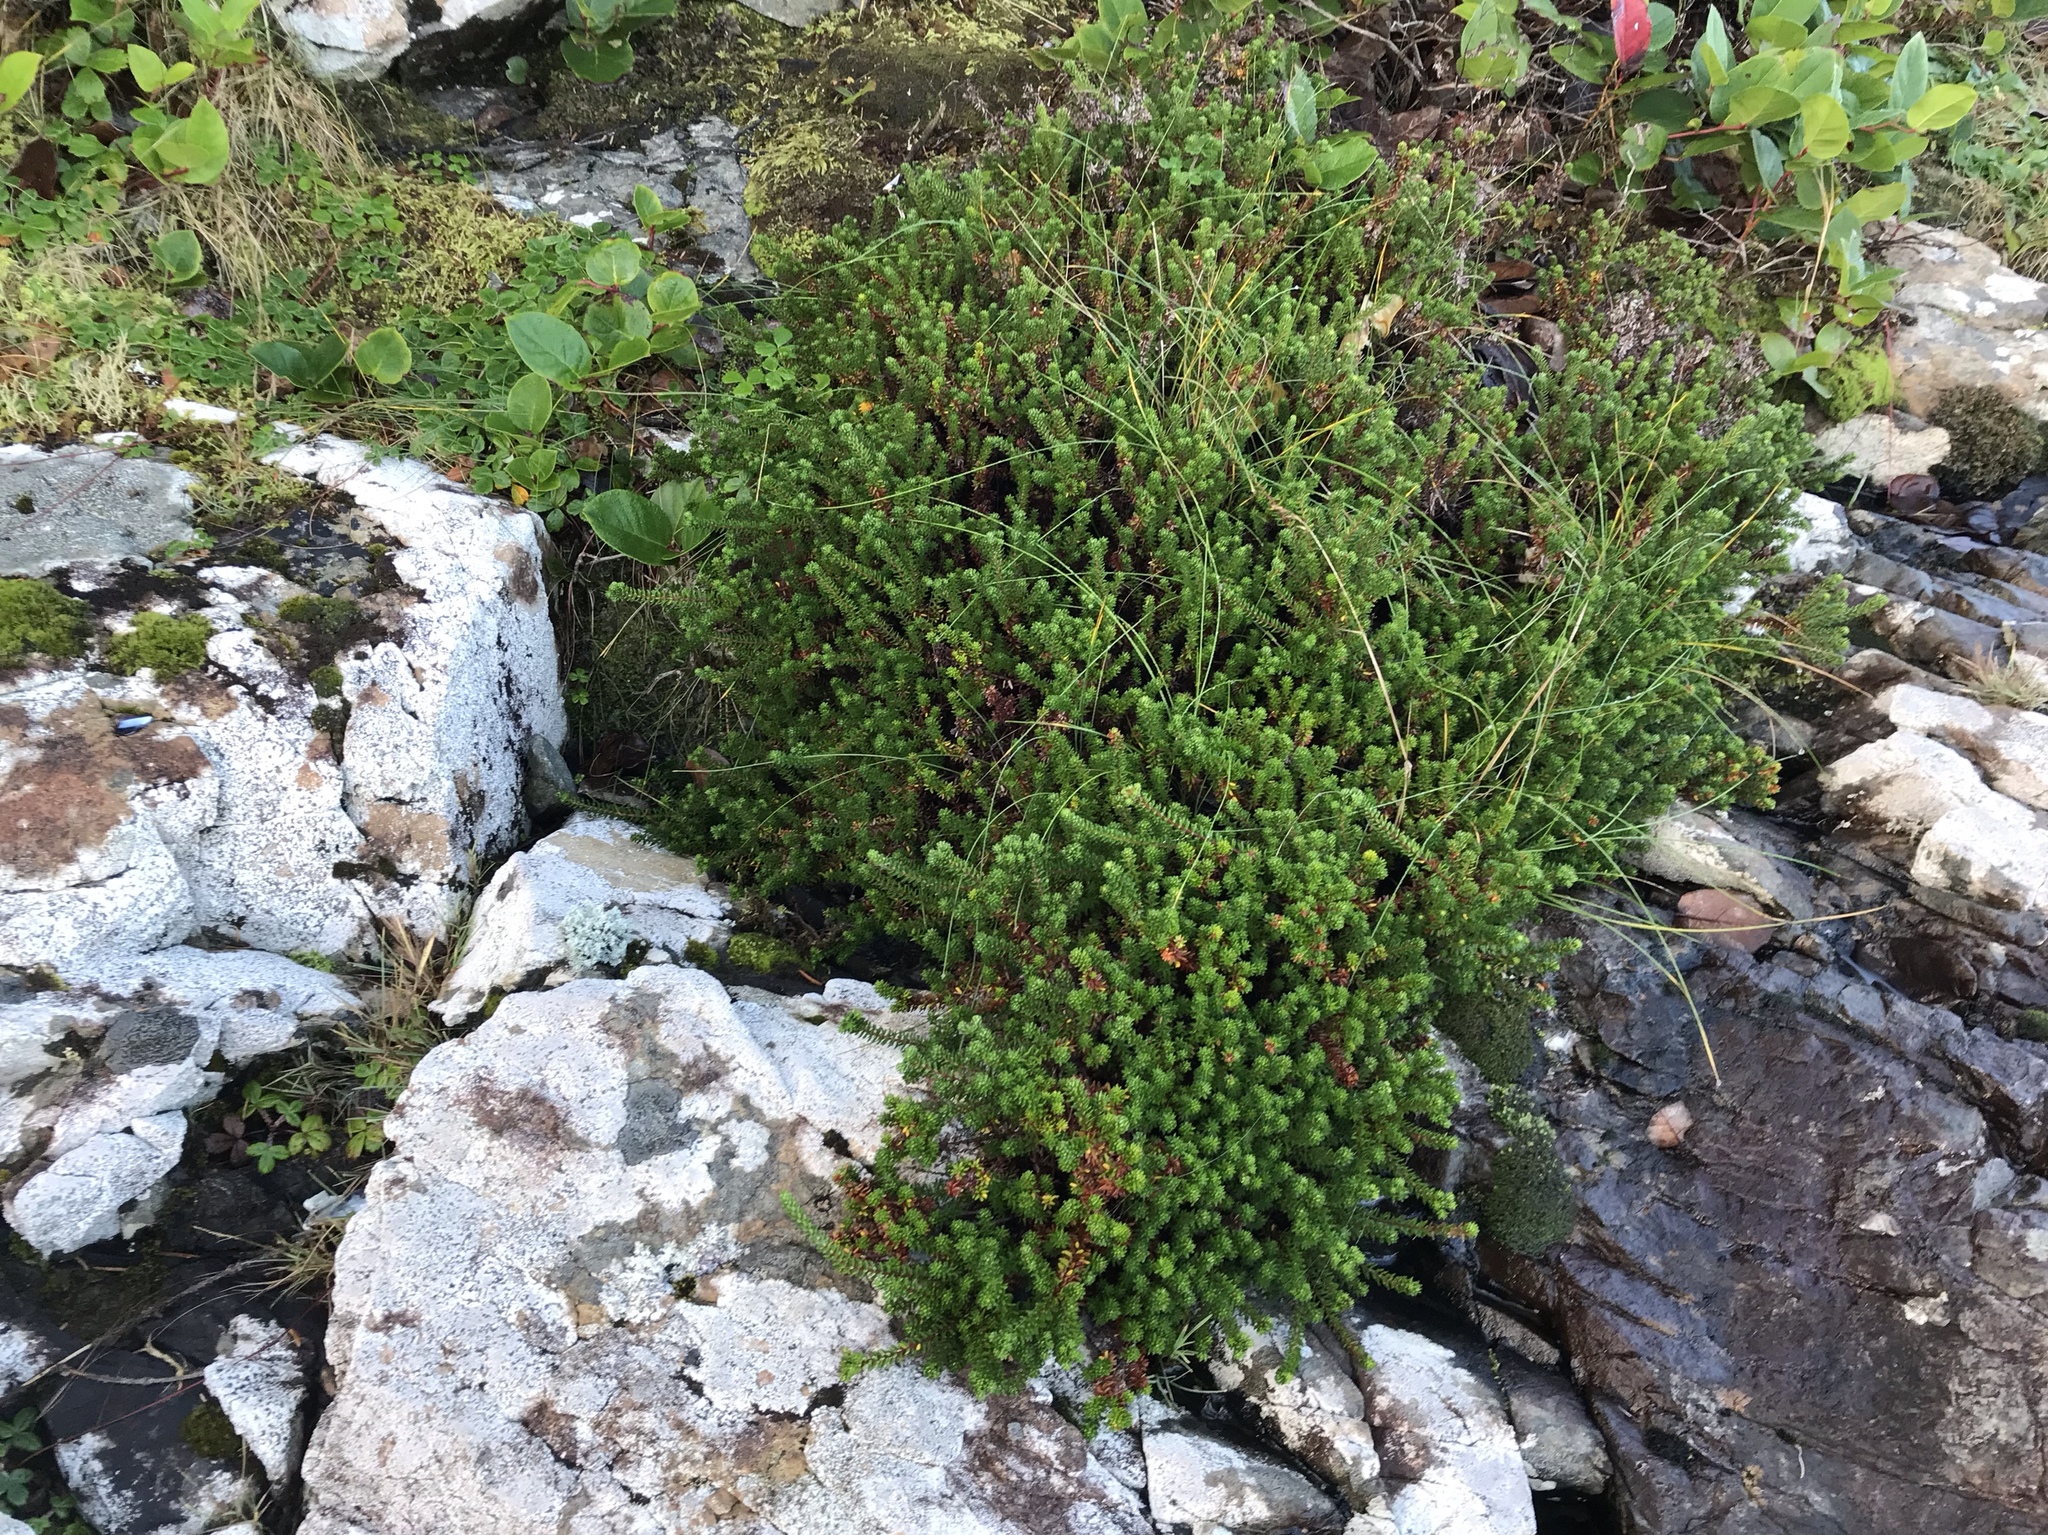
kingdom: Plantae
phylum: Tracheophyta
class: Magnoliopsida
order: Ericales
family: Ericaceae
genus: Empetrum
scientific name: Empetrum nigrum
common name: Black crowberry
